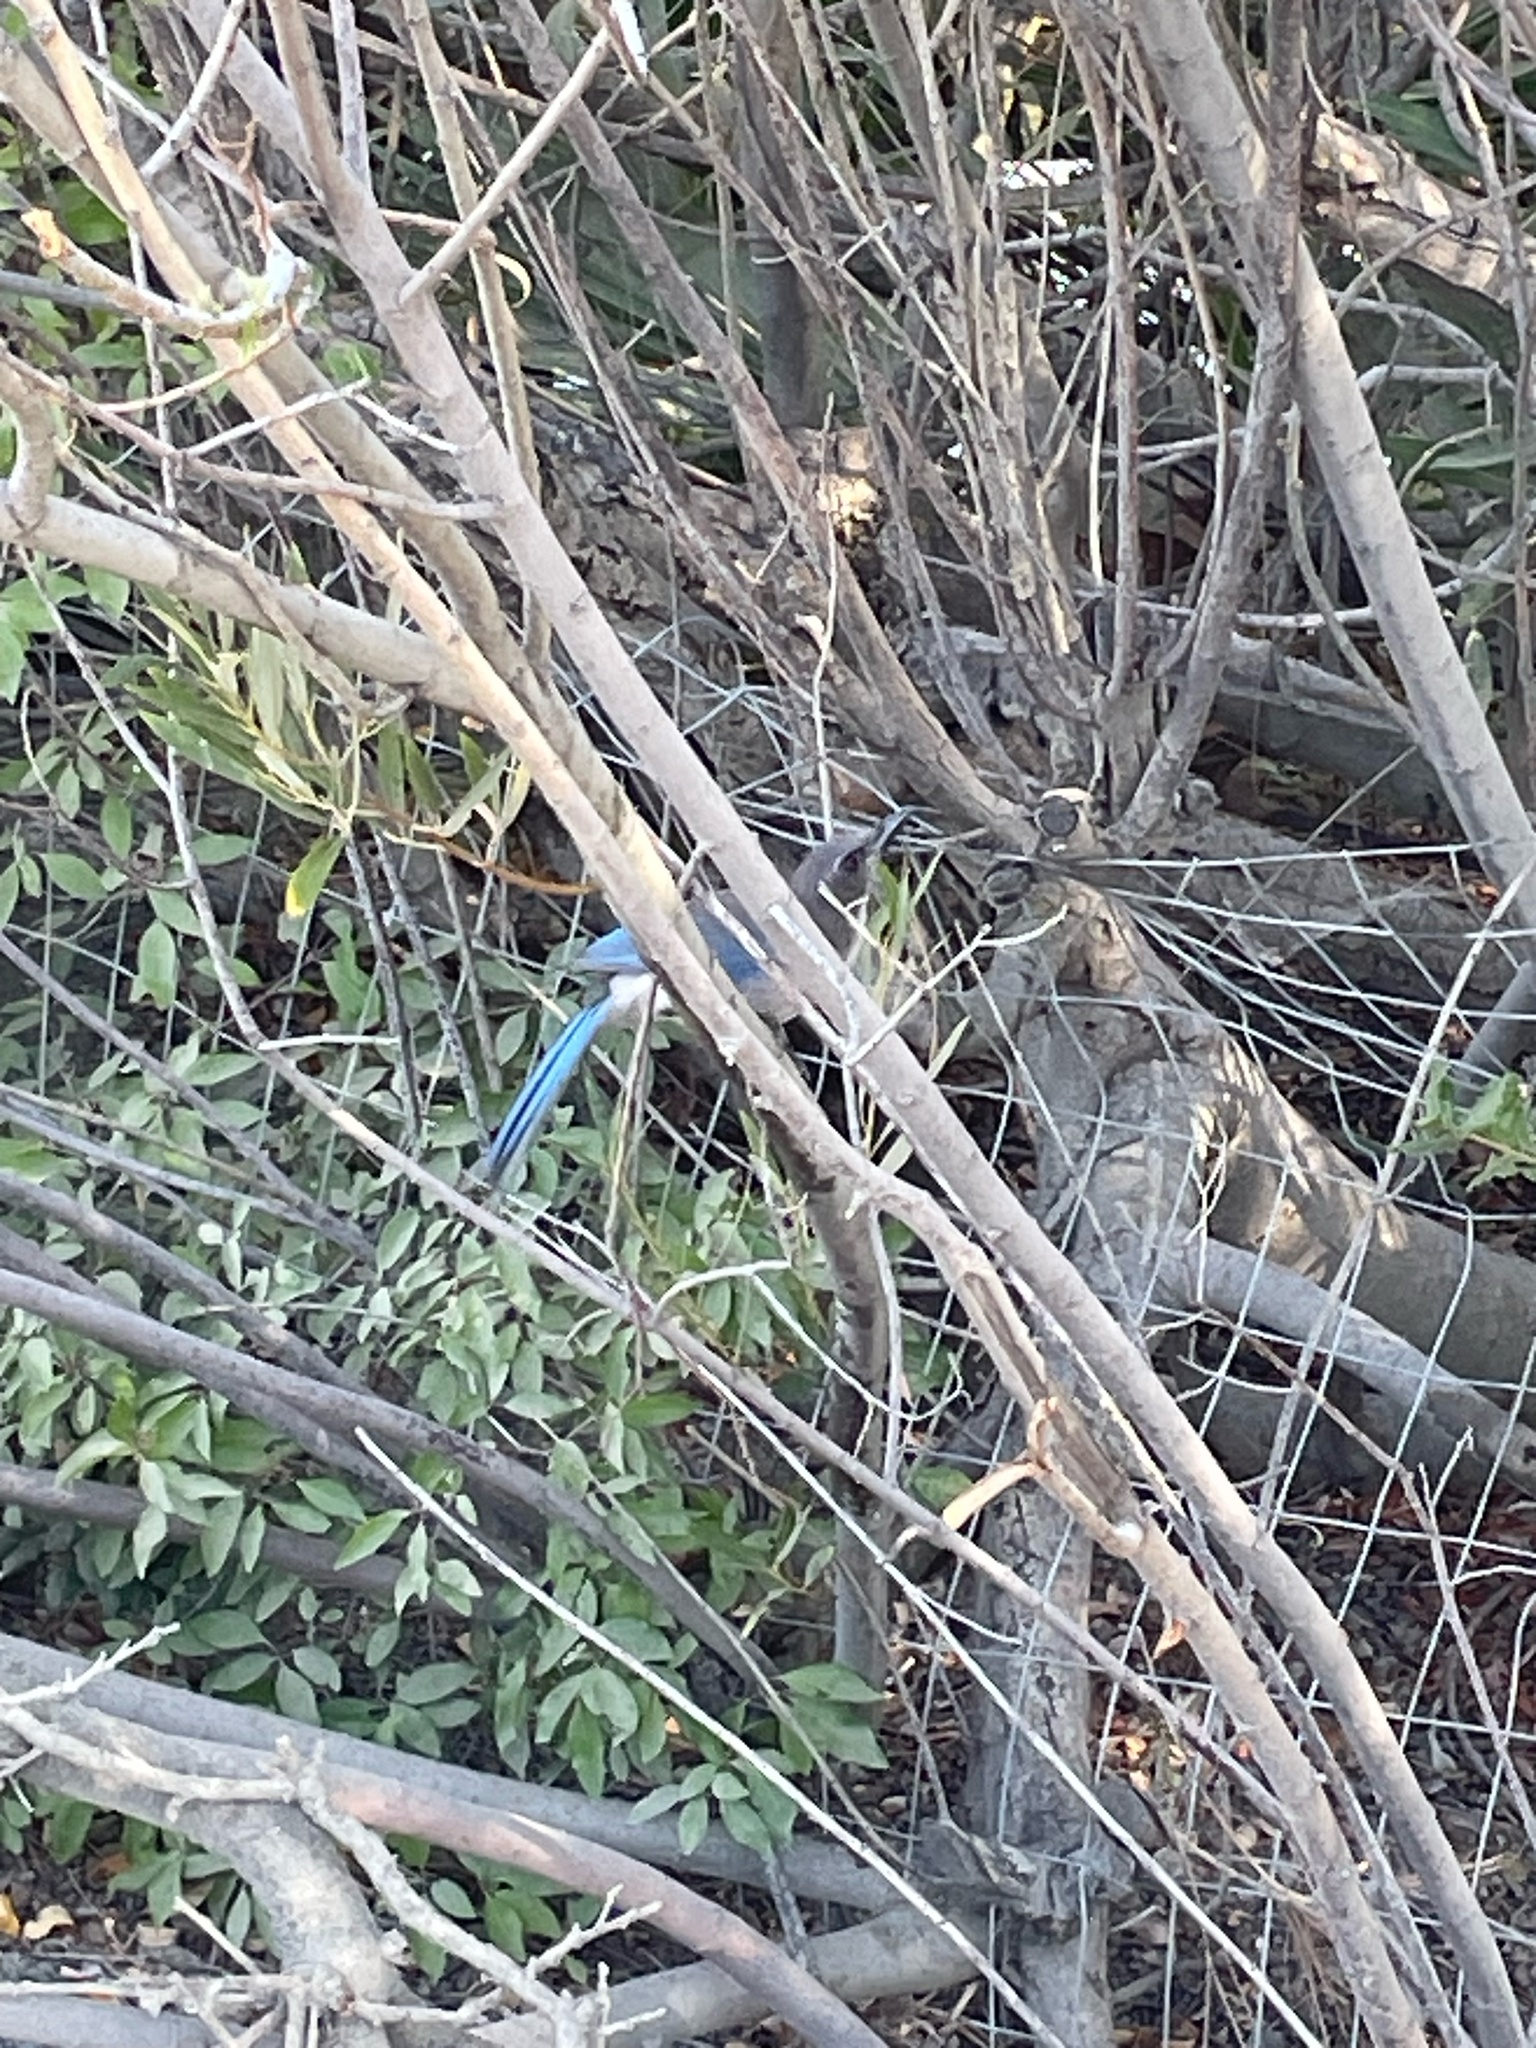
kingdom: Animalia
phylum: Chordata
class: Aves
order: Passeriformes
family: Corvidae
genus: Aphelocoma
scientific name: Aphelocoma californica
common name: California scrub-jay
